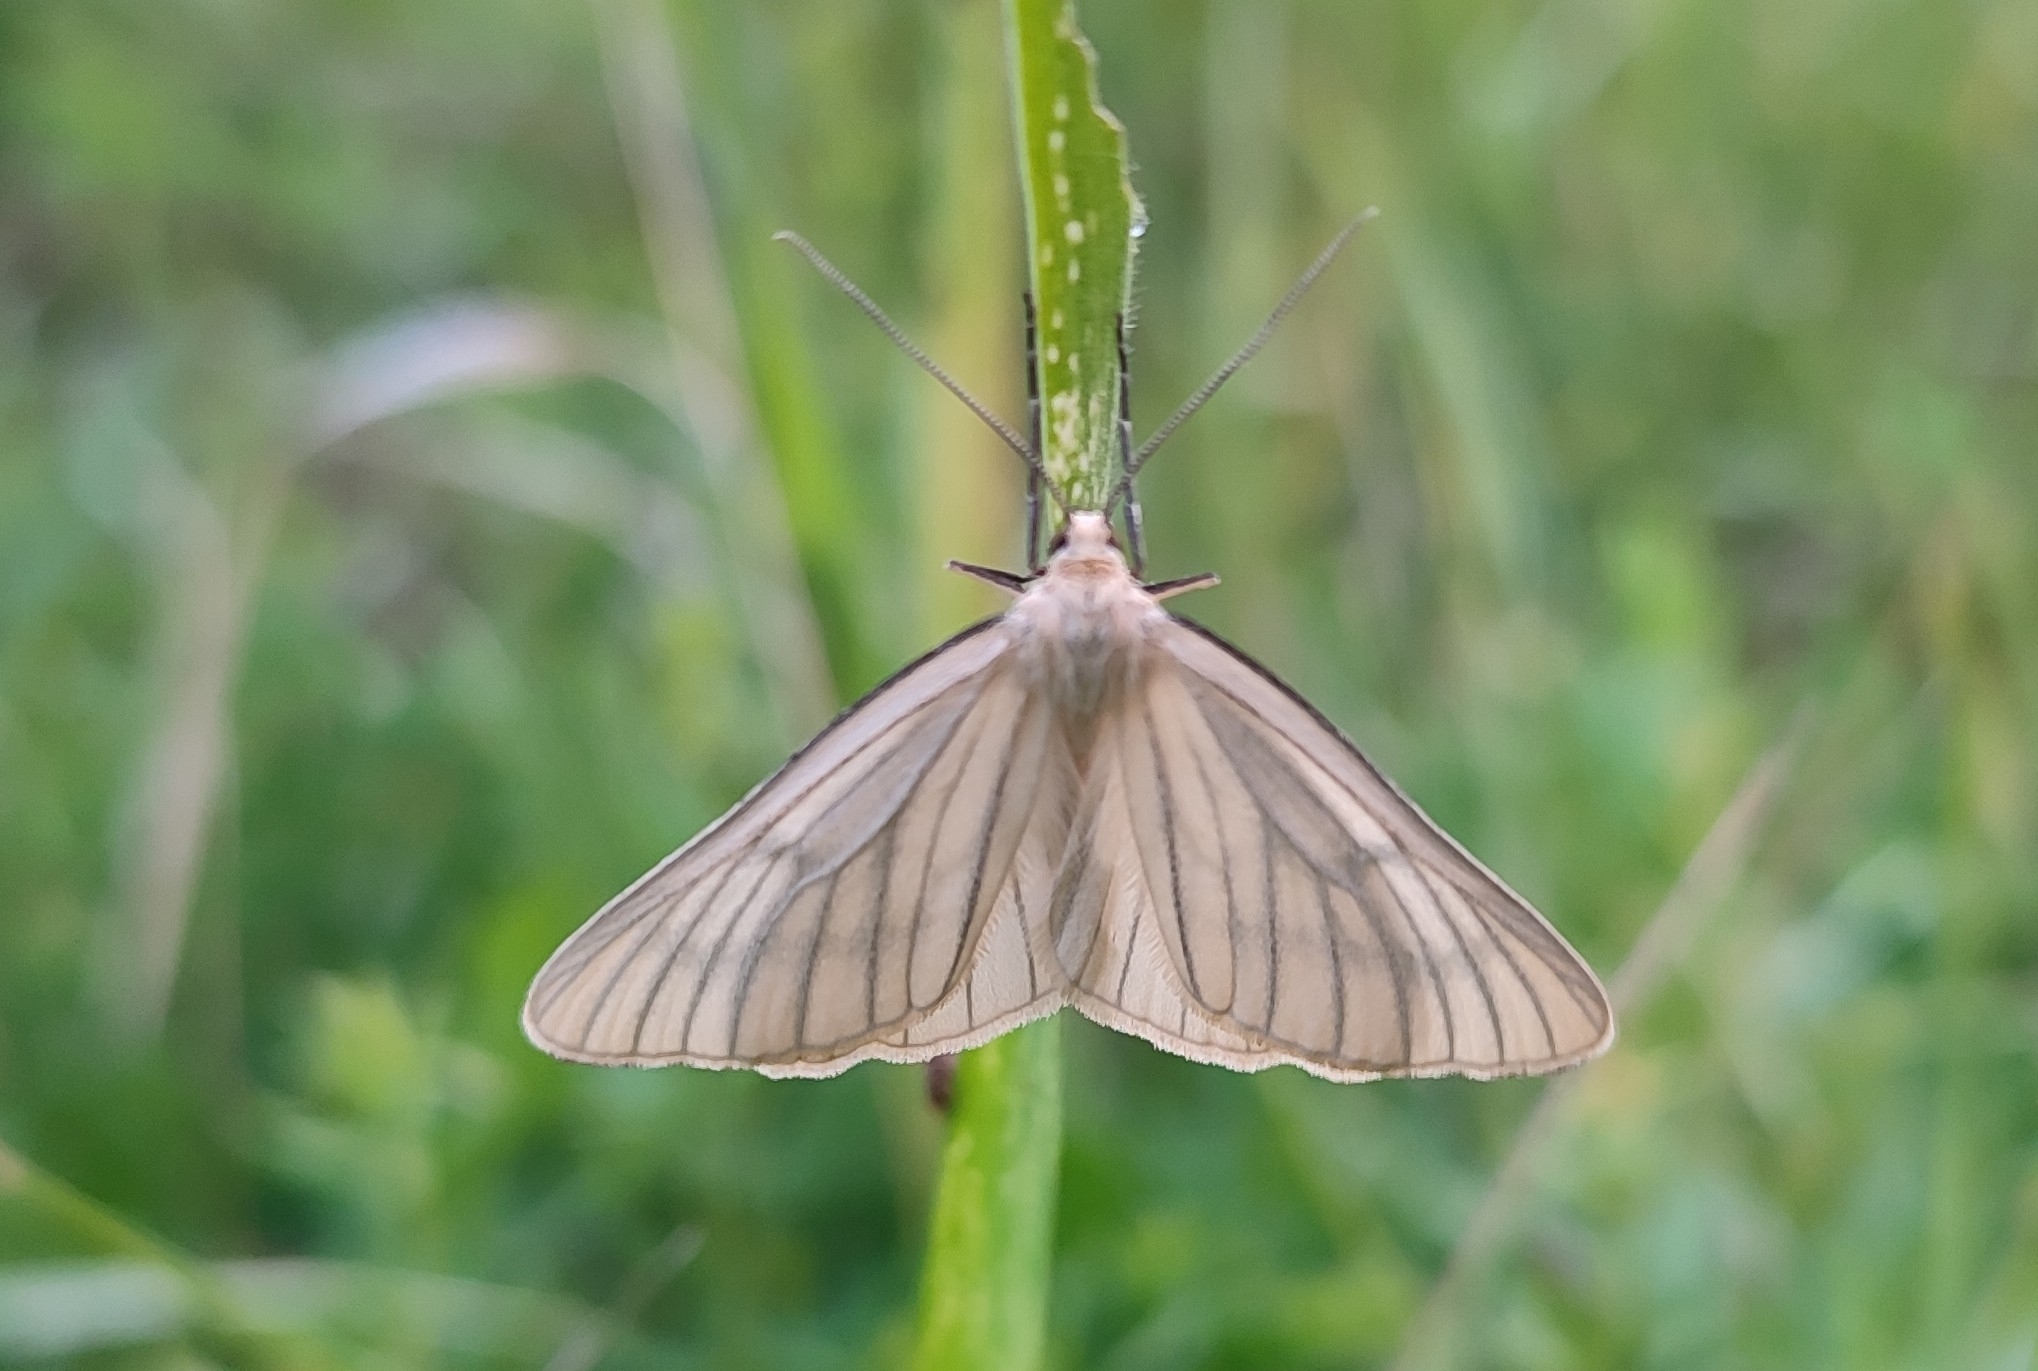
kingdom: Animalia
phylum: Arthropoda
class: Insecta
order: Lepidoptera
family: Geometridae
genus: Siona
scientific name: Siona lineata
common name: Black-veined moth
